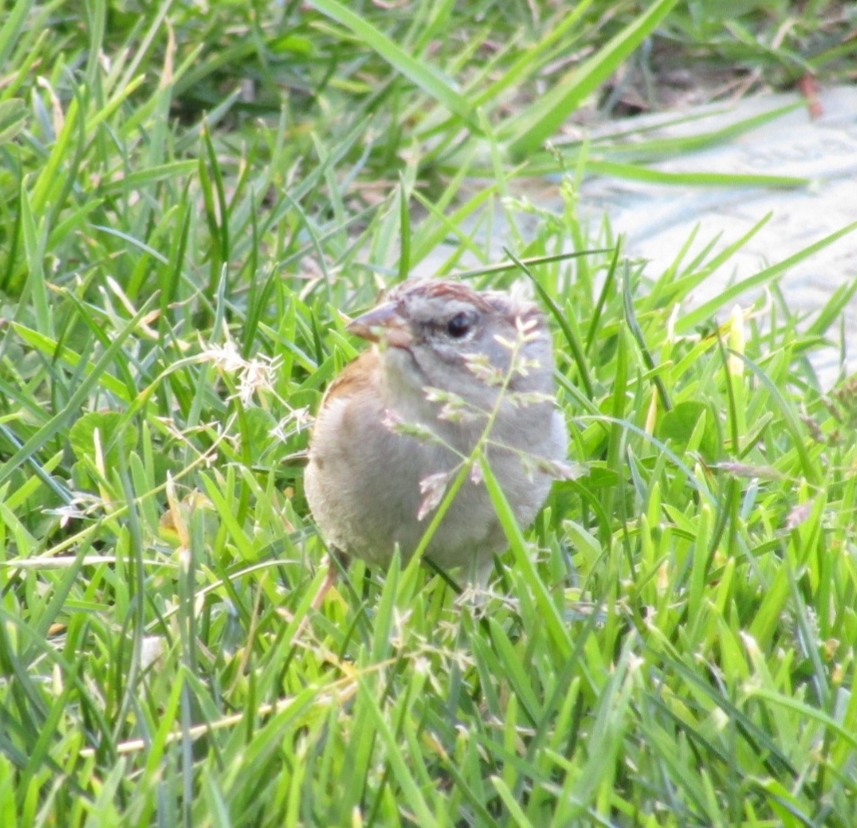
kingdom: Animalia
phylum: Chordata
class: Aves
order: Passeriformes
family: Passerellidae
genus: Spizella
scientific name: Spizella passerina
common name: Chipping sparrow
